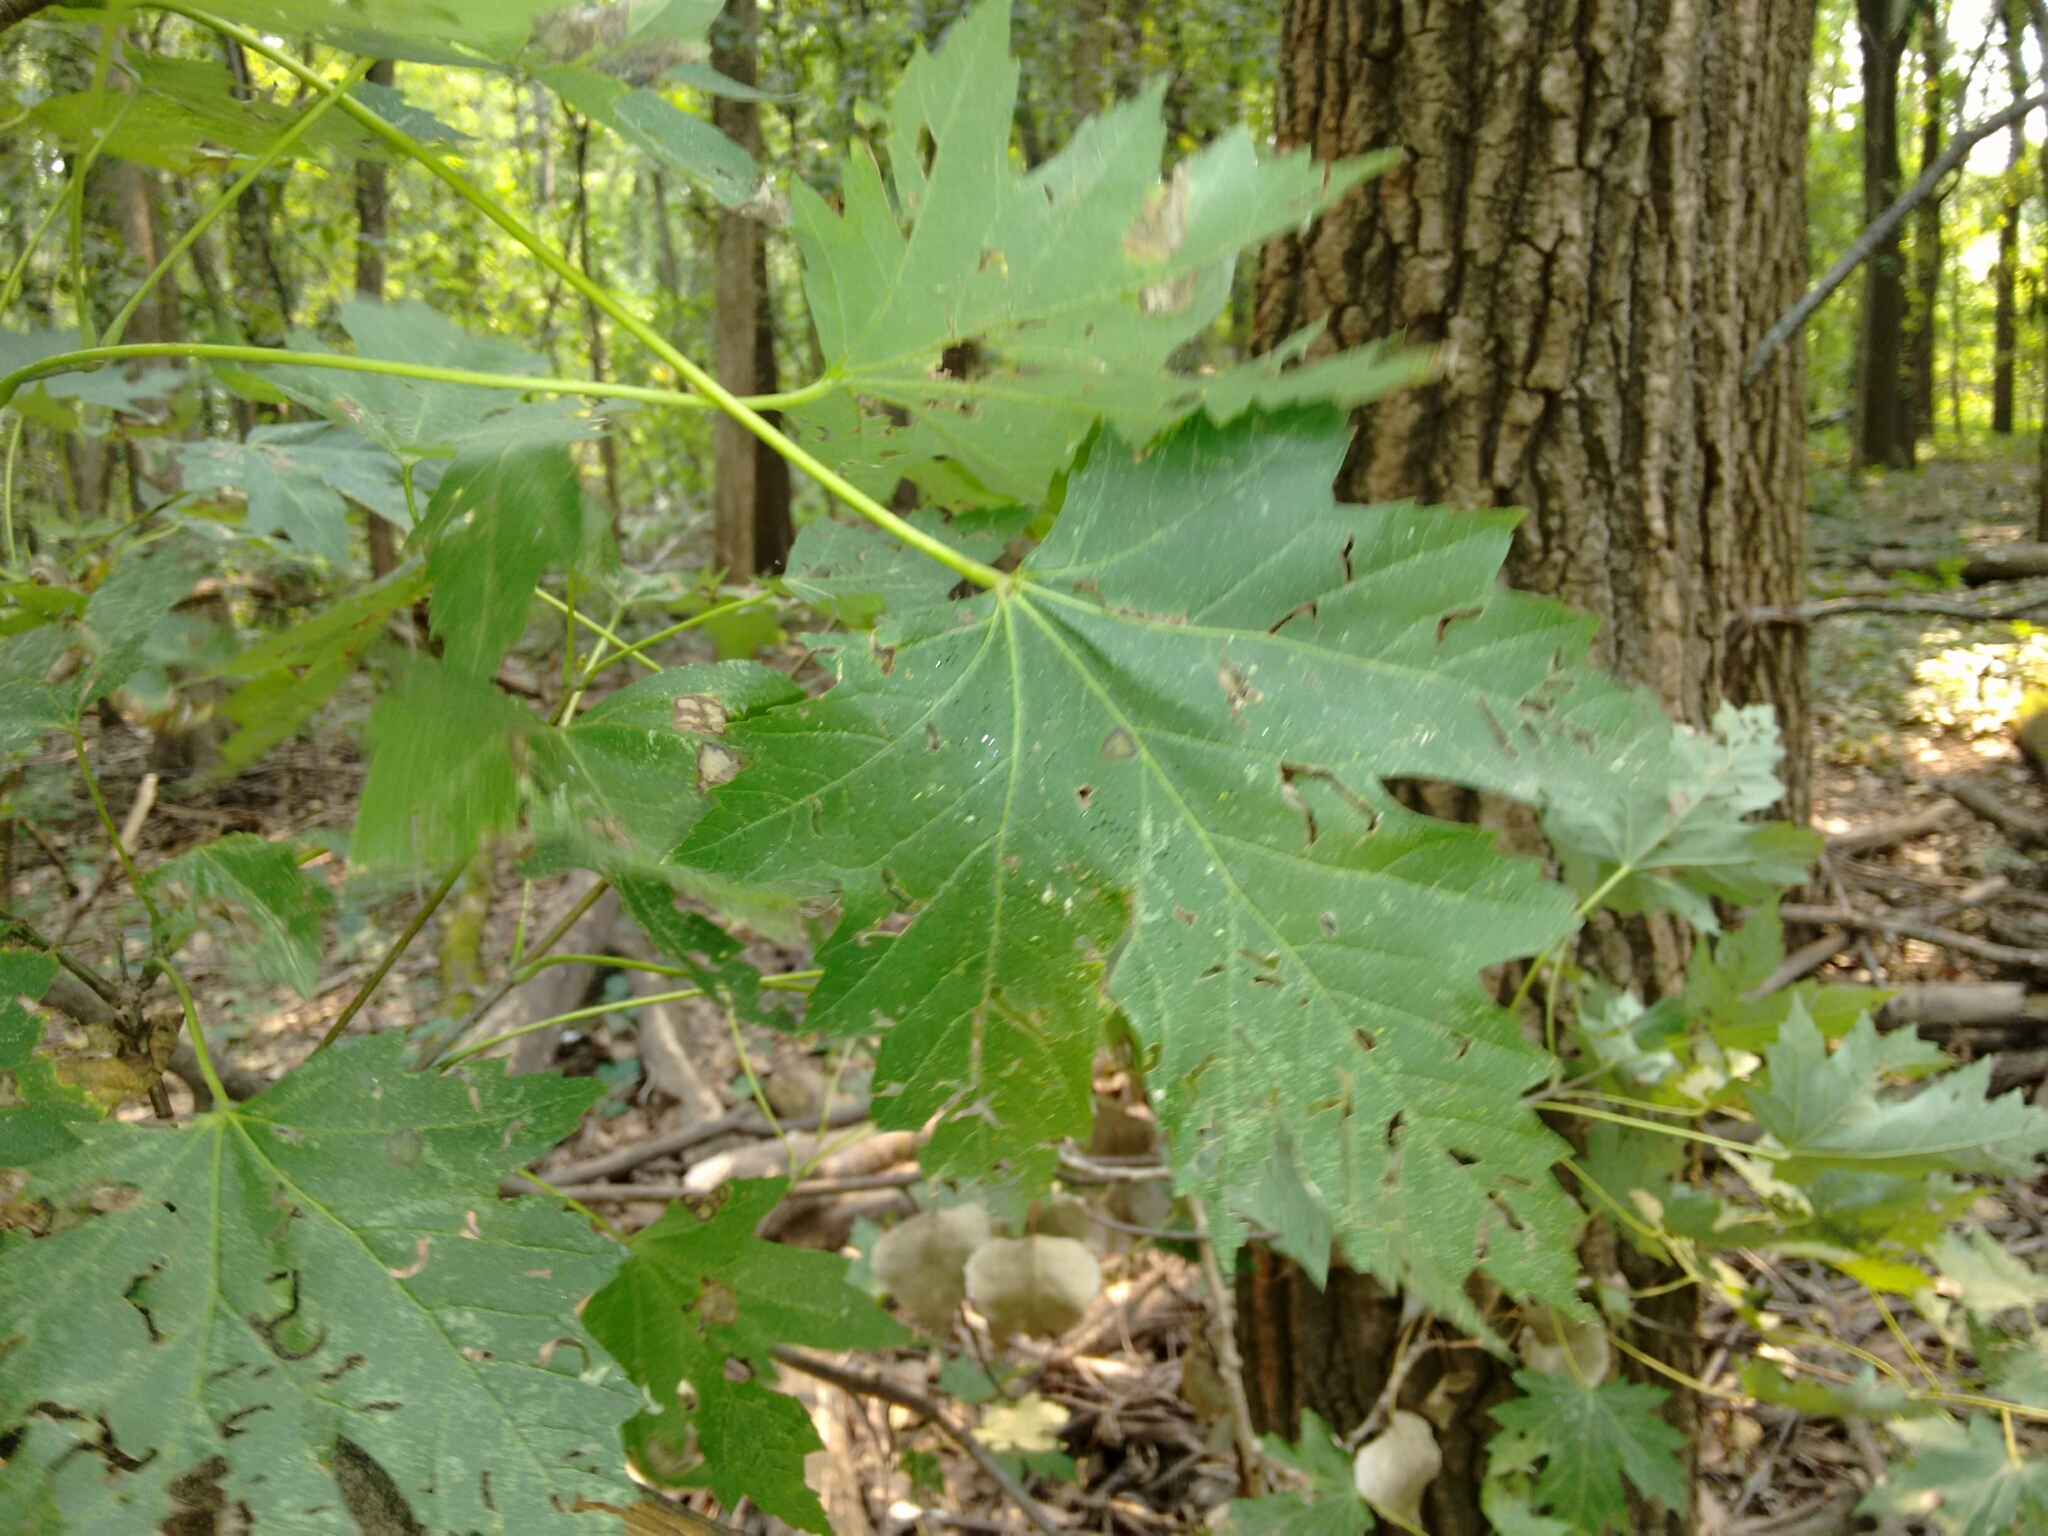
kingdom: Plantae
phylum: Tracheophyta
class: Magnoliopsida
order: Sapindales
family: Sapindaceae
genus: Acer
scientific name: Acer saccharinum
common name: Silver maple
